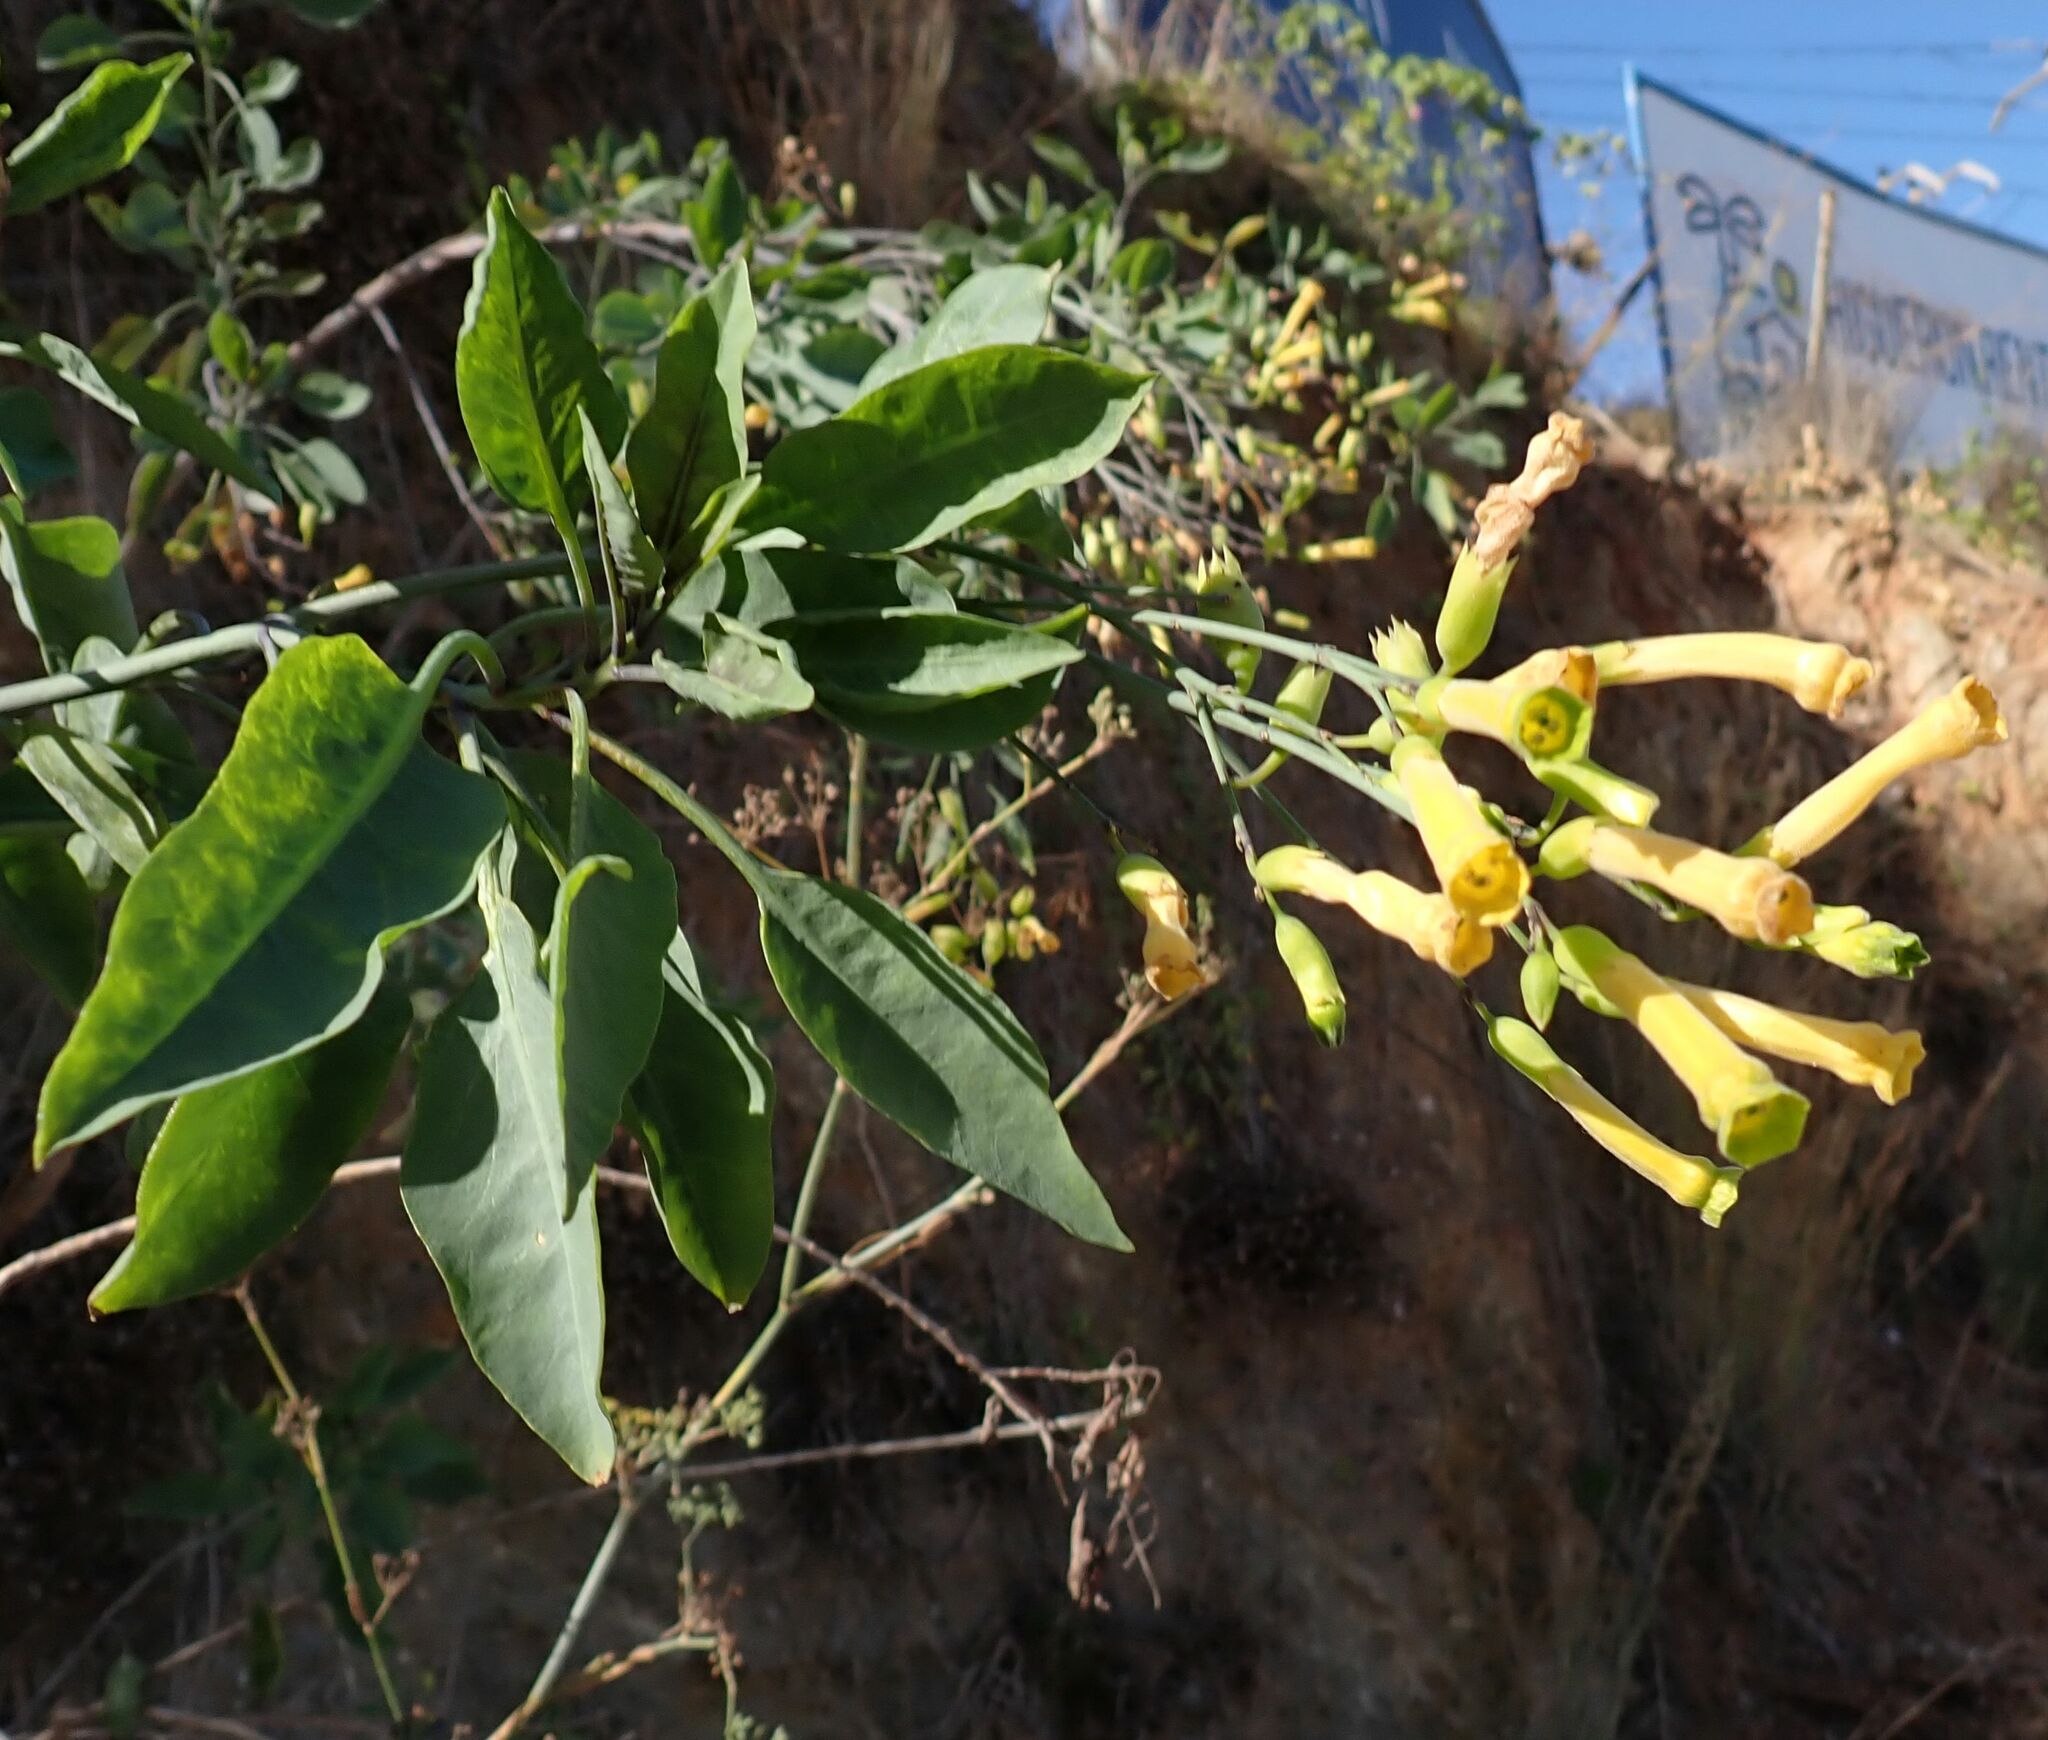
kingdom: Plantae
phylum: Tracheophyta
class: Magnoliopsida
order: Solanales
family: Solanaceae
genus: Nicotiana
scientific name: Nicotiana glauca
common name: Tree tobacco
